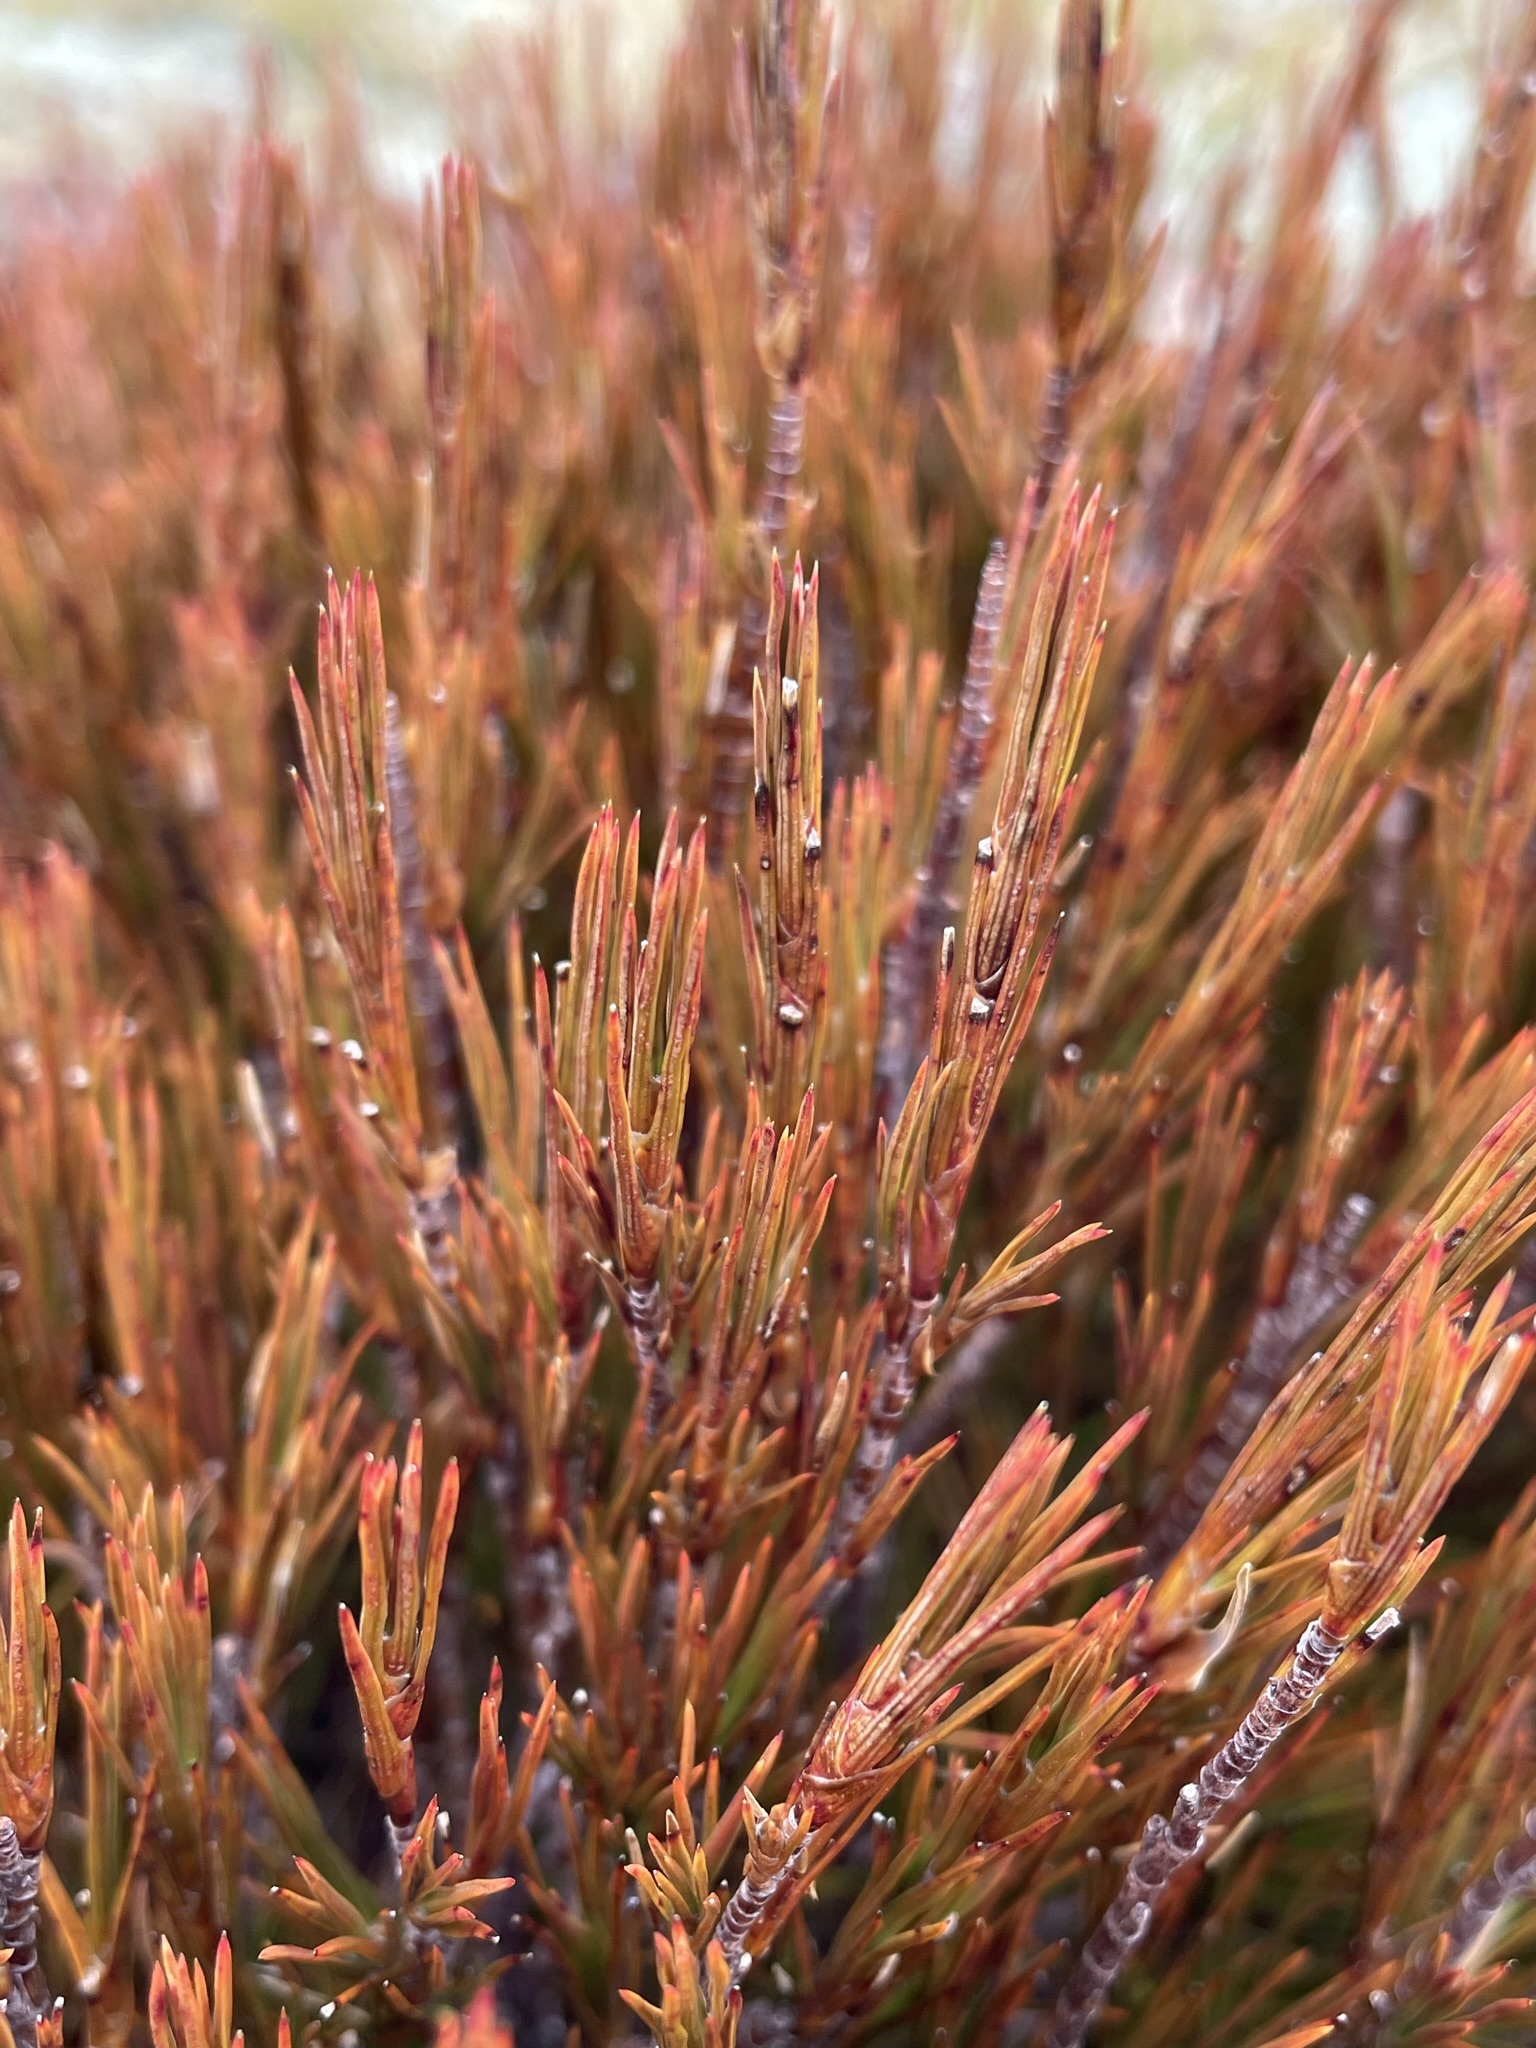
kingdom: Plantae
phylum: Tracheophyta
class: Magnoliopsida
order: Ericales
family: Ericaceae
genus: Dracophyllum
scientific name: Dracophyllum rosmarinifolium
